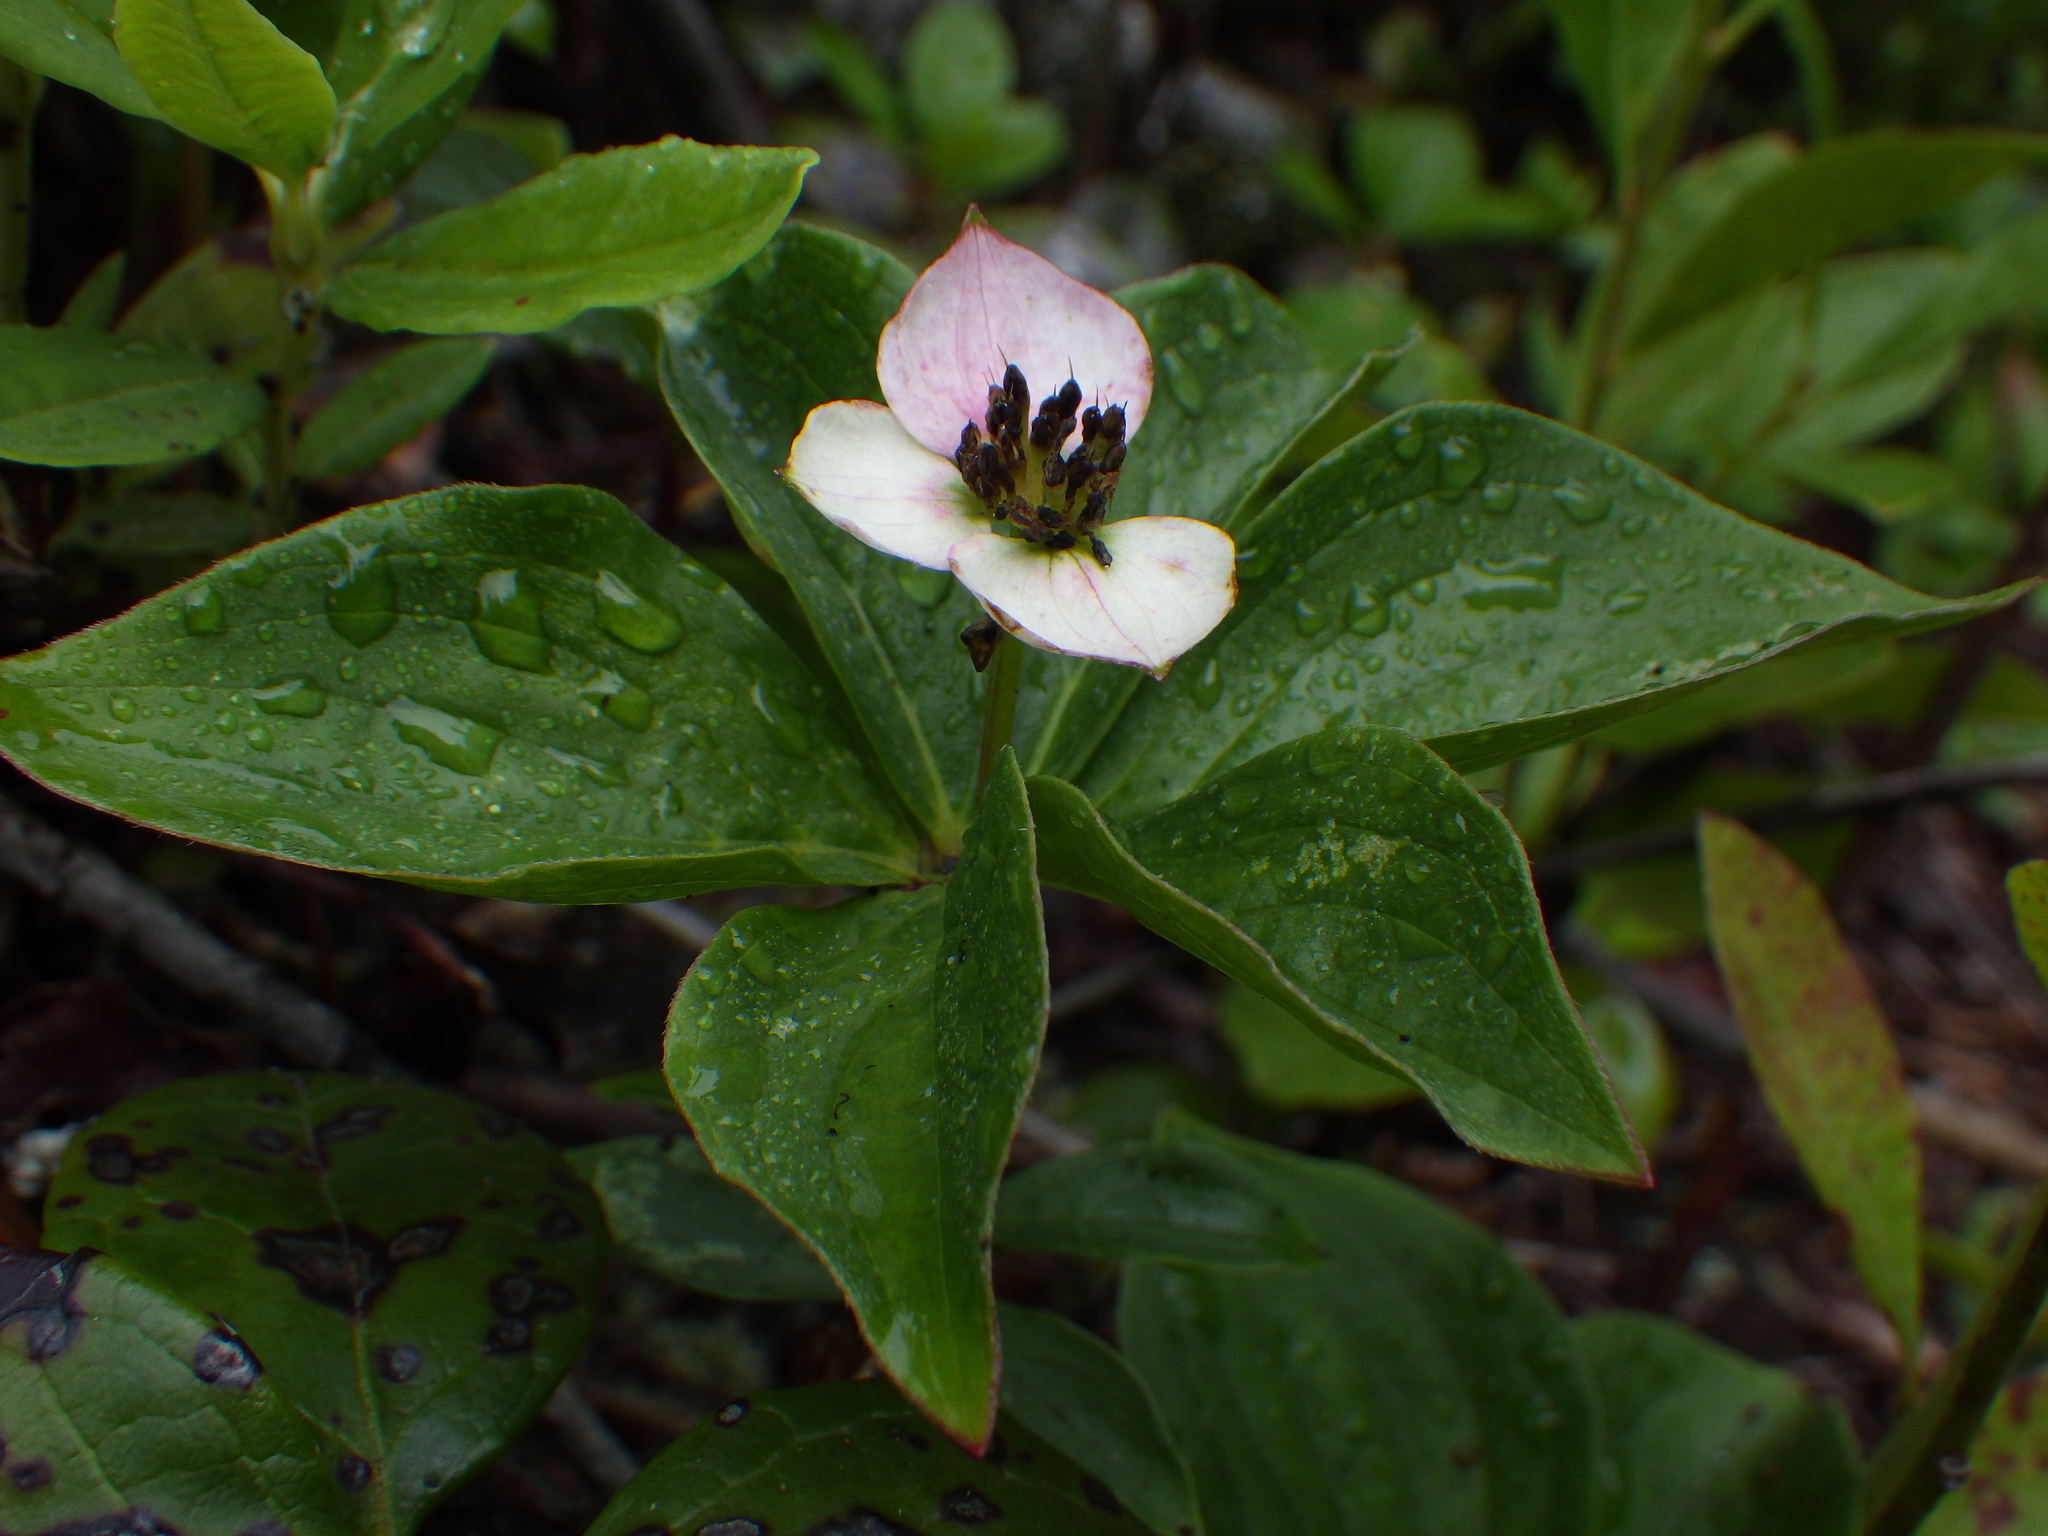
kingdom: Plantae
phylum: Tracheophyta
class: Magnoliopsida
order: Cornales
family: Cornaceae
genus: Cornus
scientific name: Cornus canadensis
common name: Creeping dogwood
